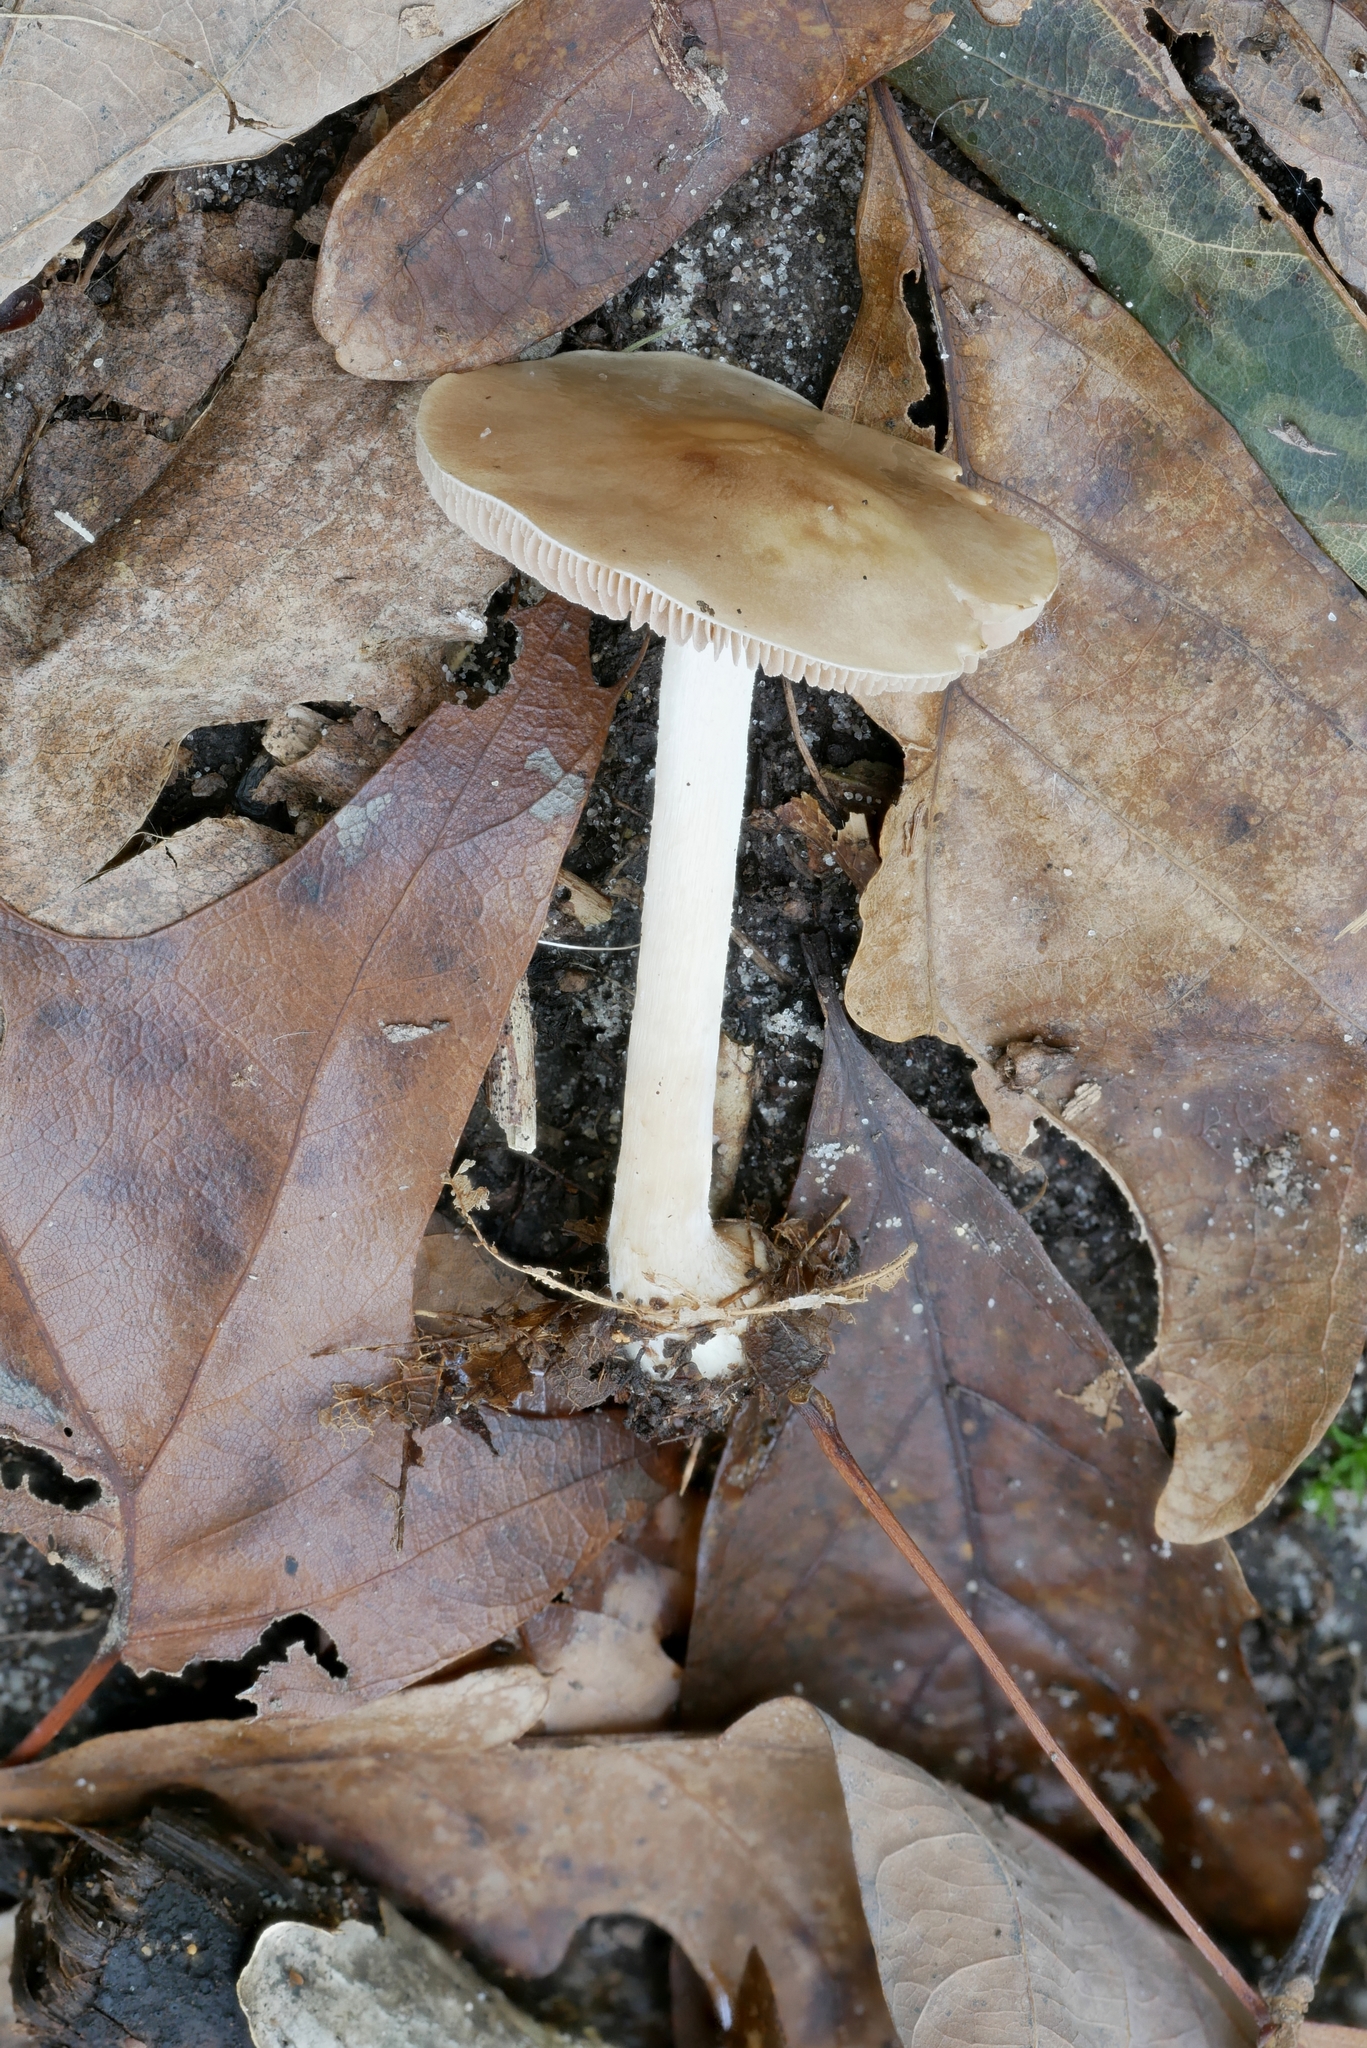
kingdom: Fungi
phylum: Basidiomycota
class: Agaricomycetes
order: Agaricales
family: Hymenogastraceae
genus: Hebeloma
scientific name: Hebeloma albidulum
